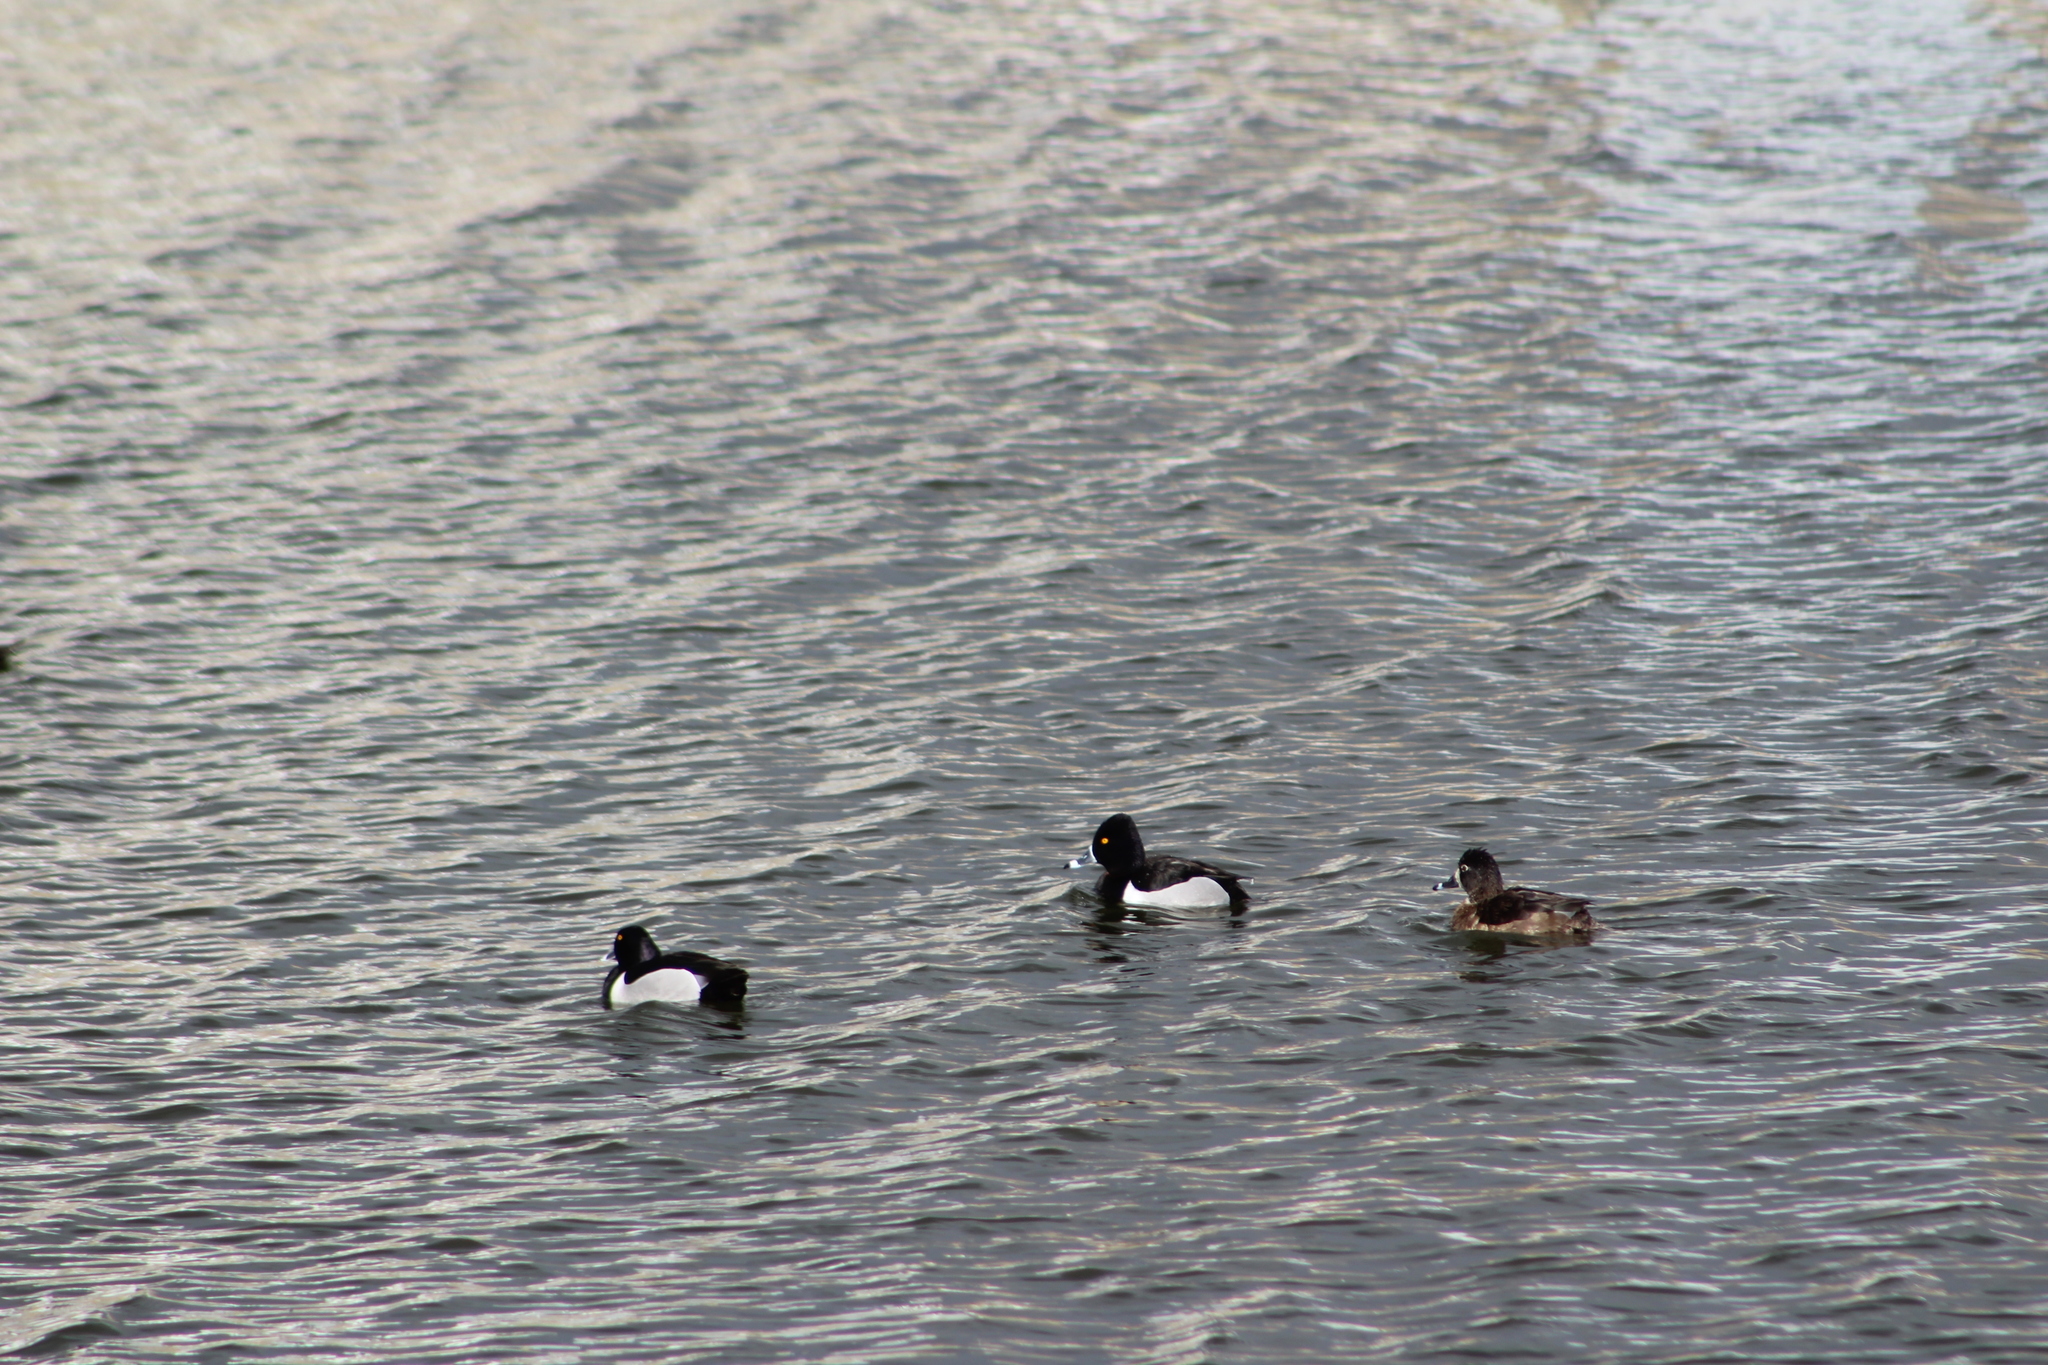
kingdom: Animalia
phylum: Chordata
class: Aves
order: Anseriformes
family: Anatidae
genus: Aythya
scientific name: Aythya collaris
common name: Ring-necked duck
